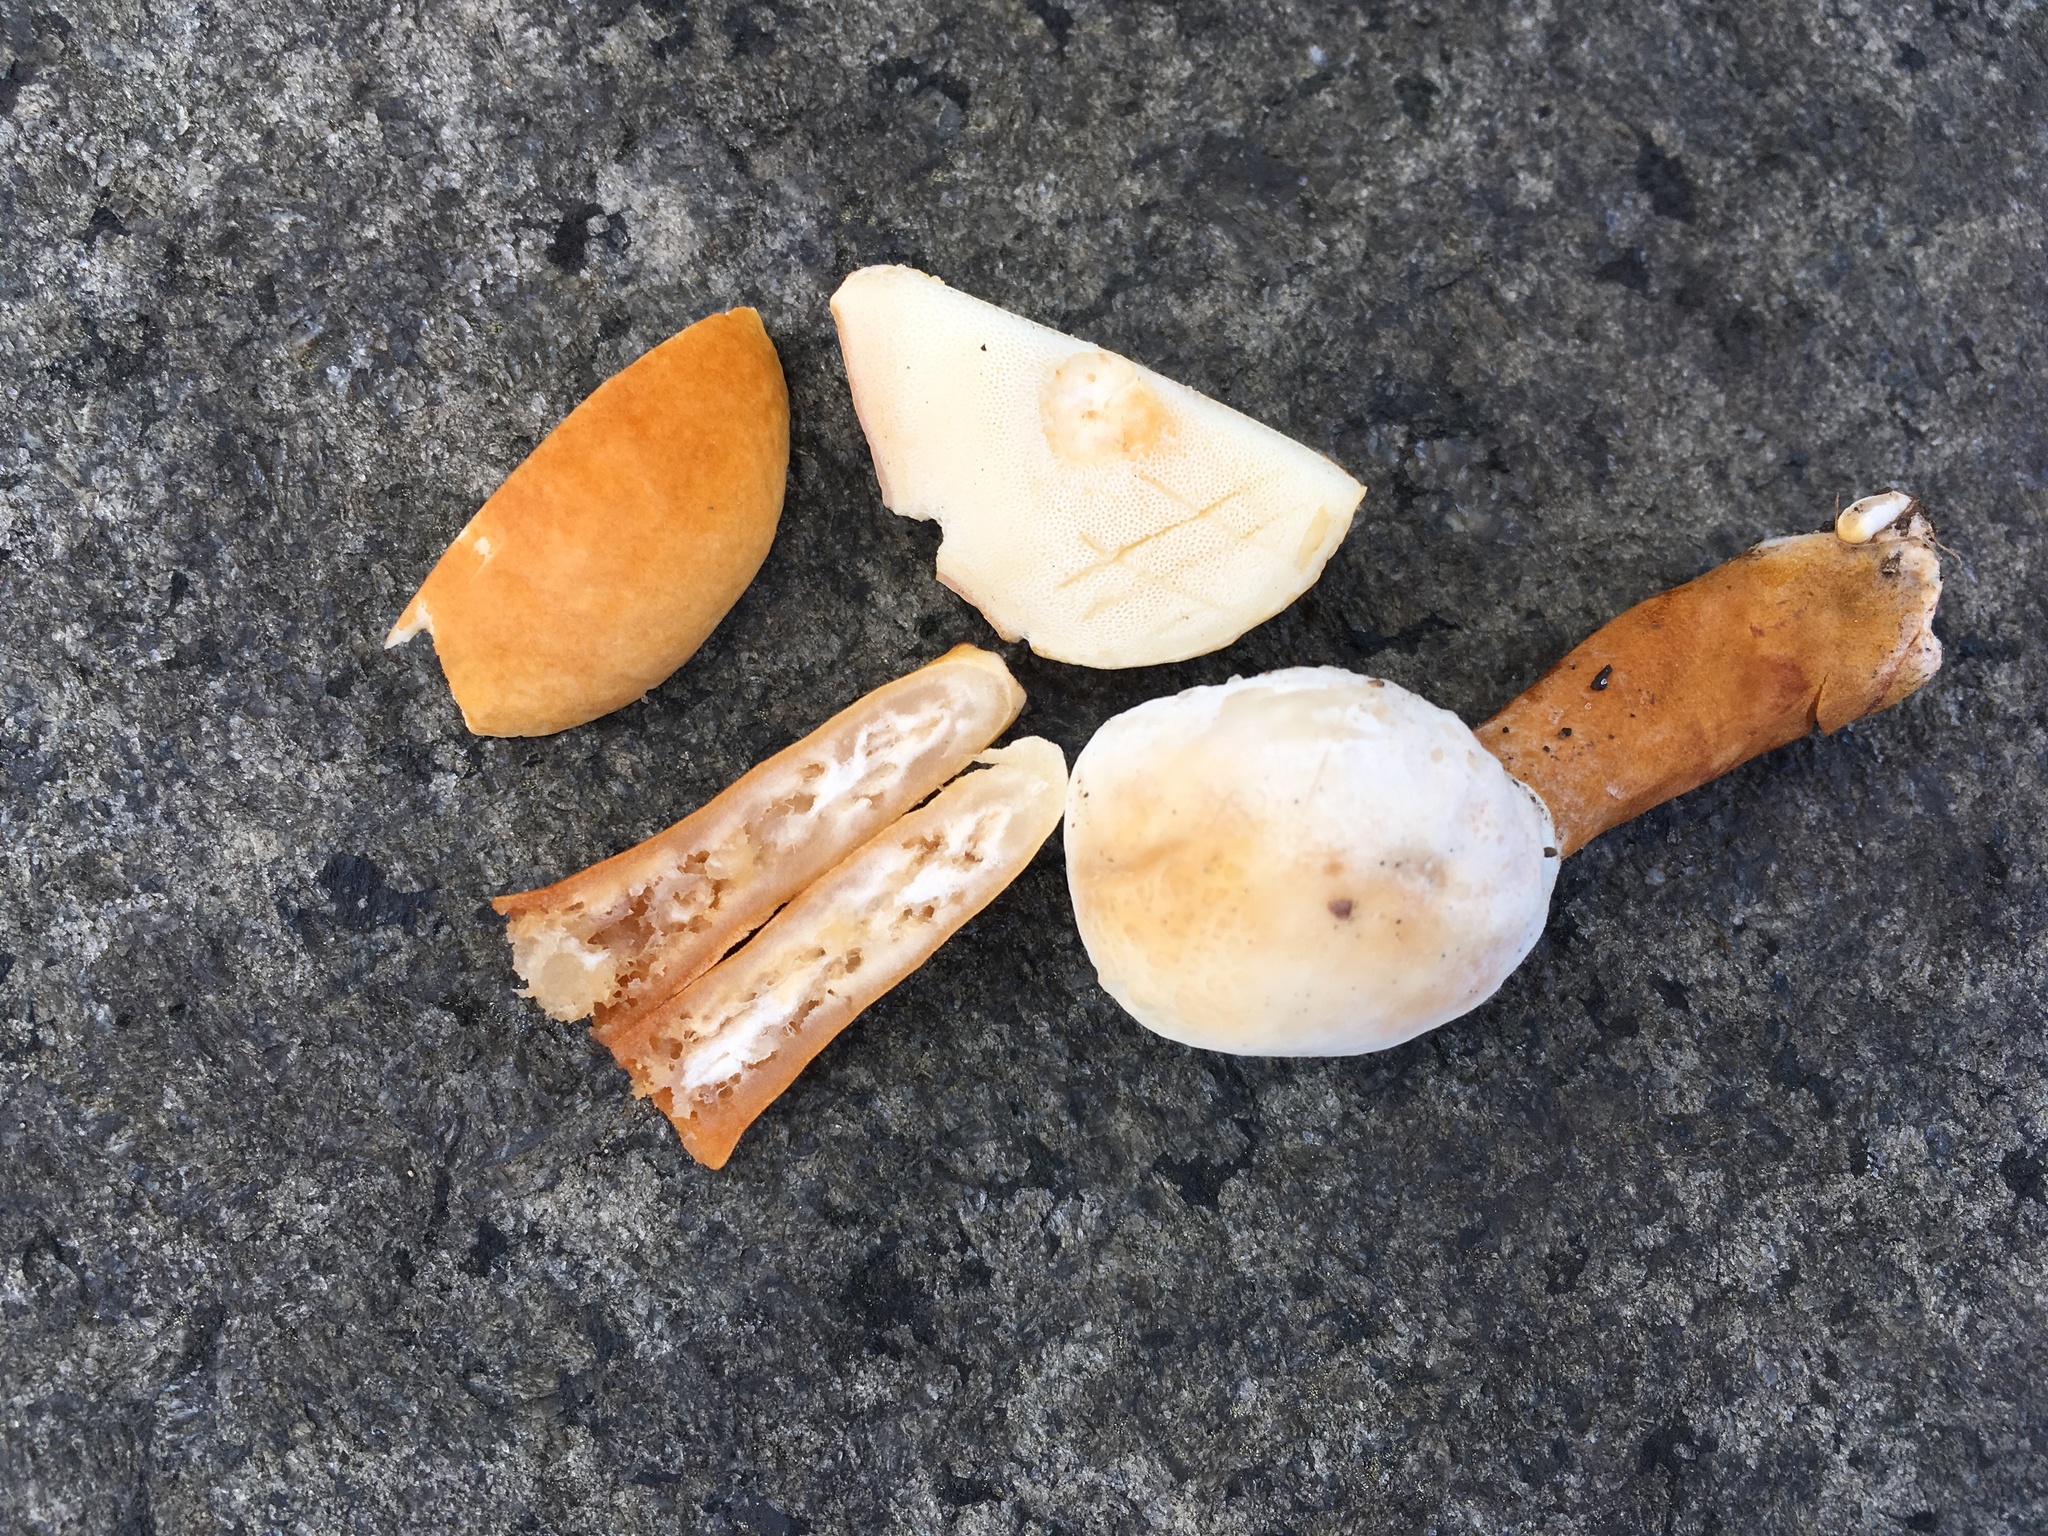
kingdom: Fungi
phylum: Basidiomycota
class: Agaricomycetes
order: Boletales
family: Gyroporaceae
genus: Gyroporus
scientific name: Gyroporus castaneus
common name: Chestnut bolete
